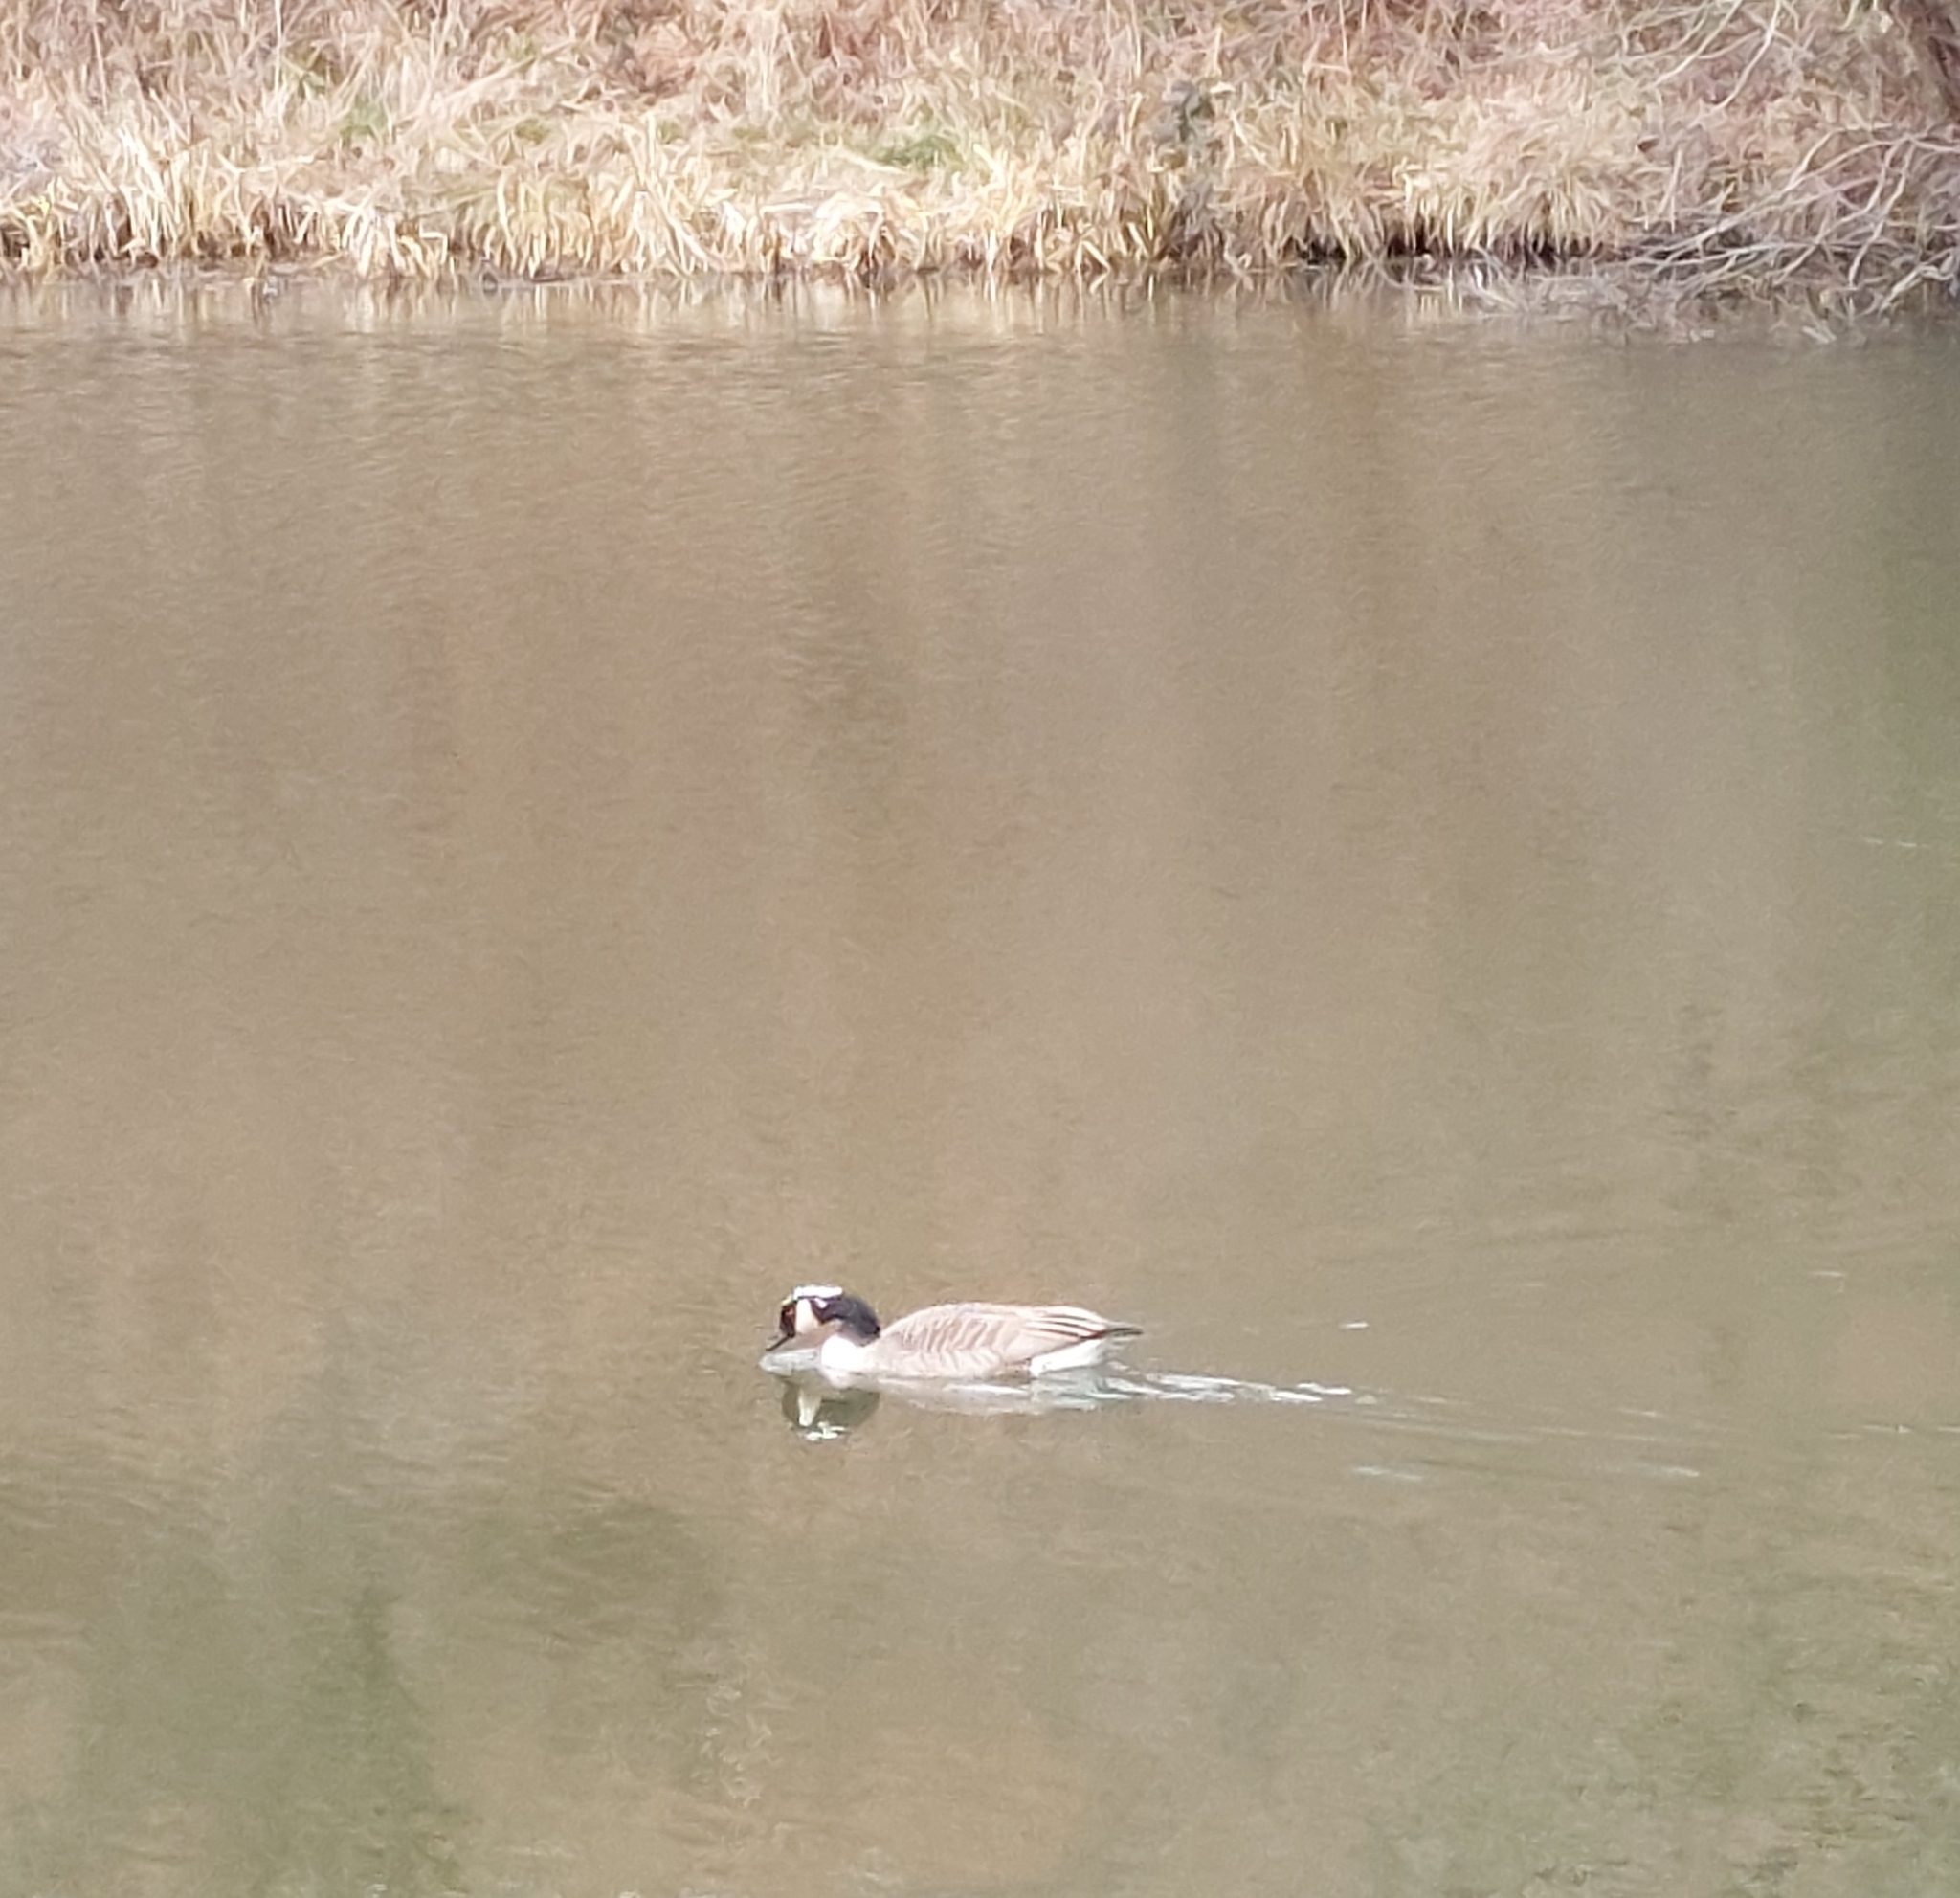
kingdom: Animalia
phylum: Chordata
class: Aves
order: Anseriformes
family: Anatidae
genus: Branta
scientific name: Branta canadensis
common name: Canada goose
